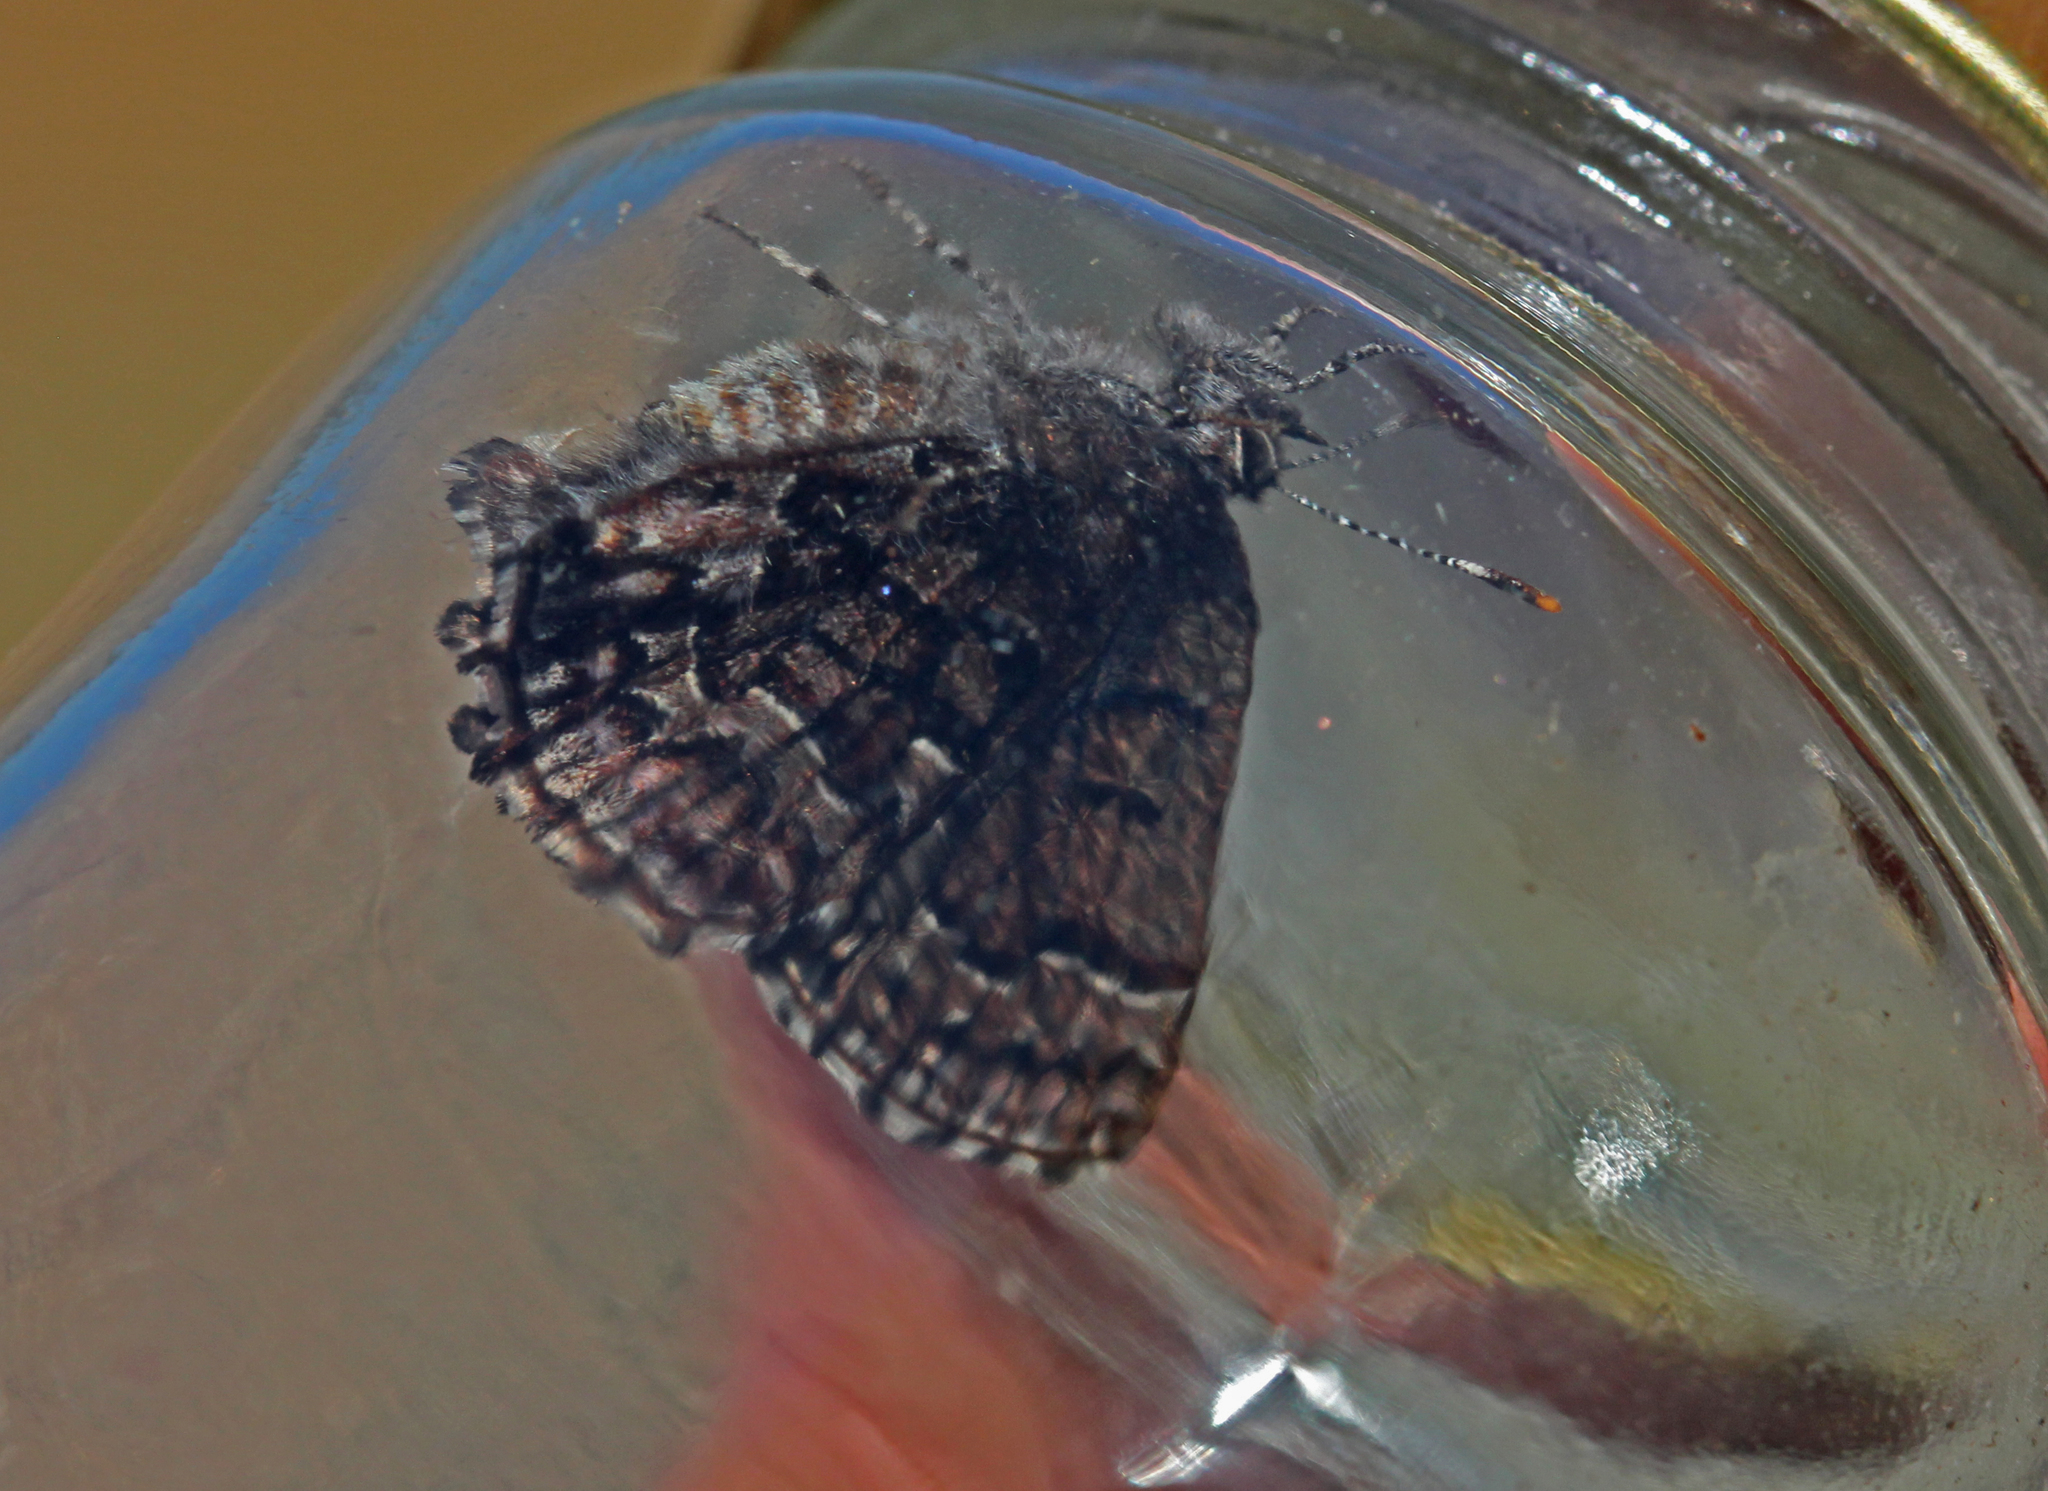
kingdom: Animalia
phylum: Arthropoda
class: Insecta
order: Lepidoptera
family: Lycaenidae
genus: Incisalia
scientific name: Incisalia niphon
